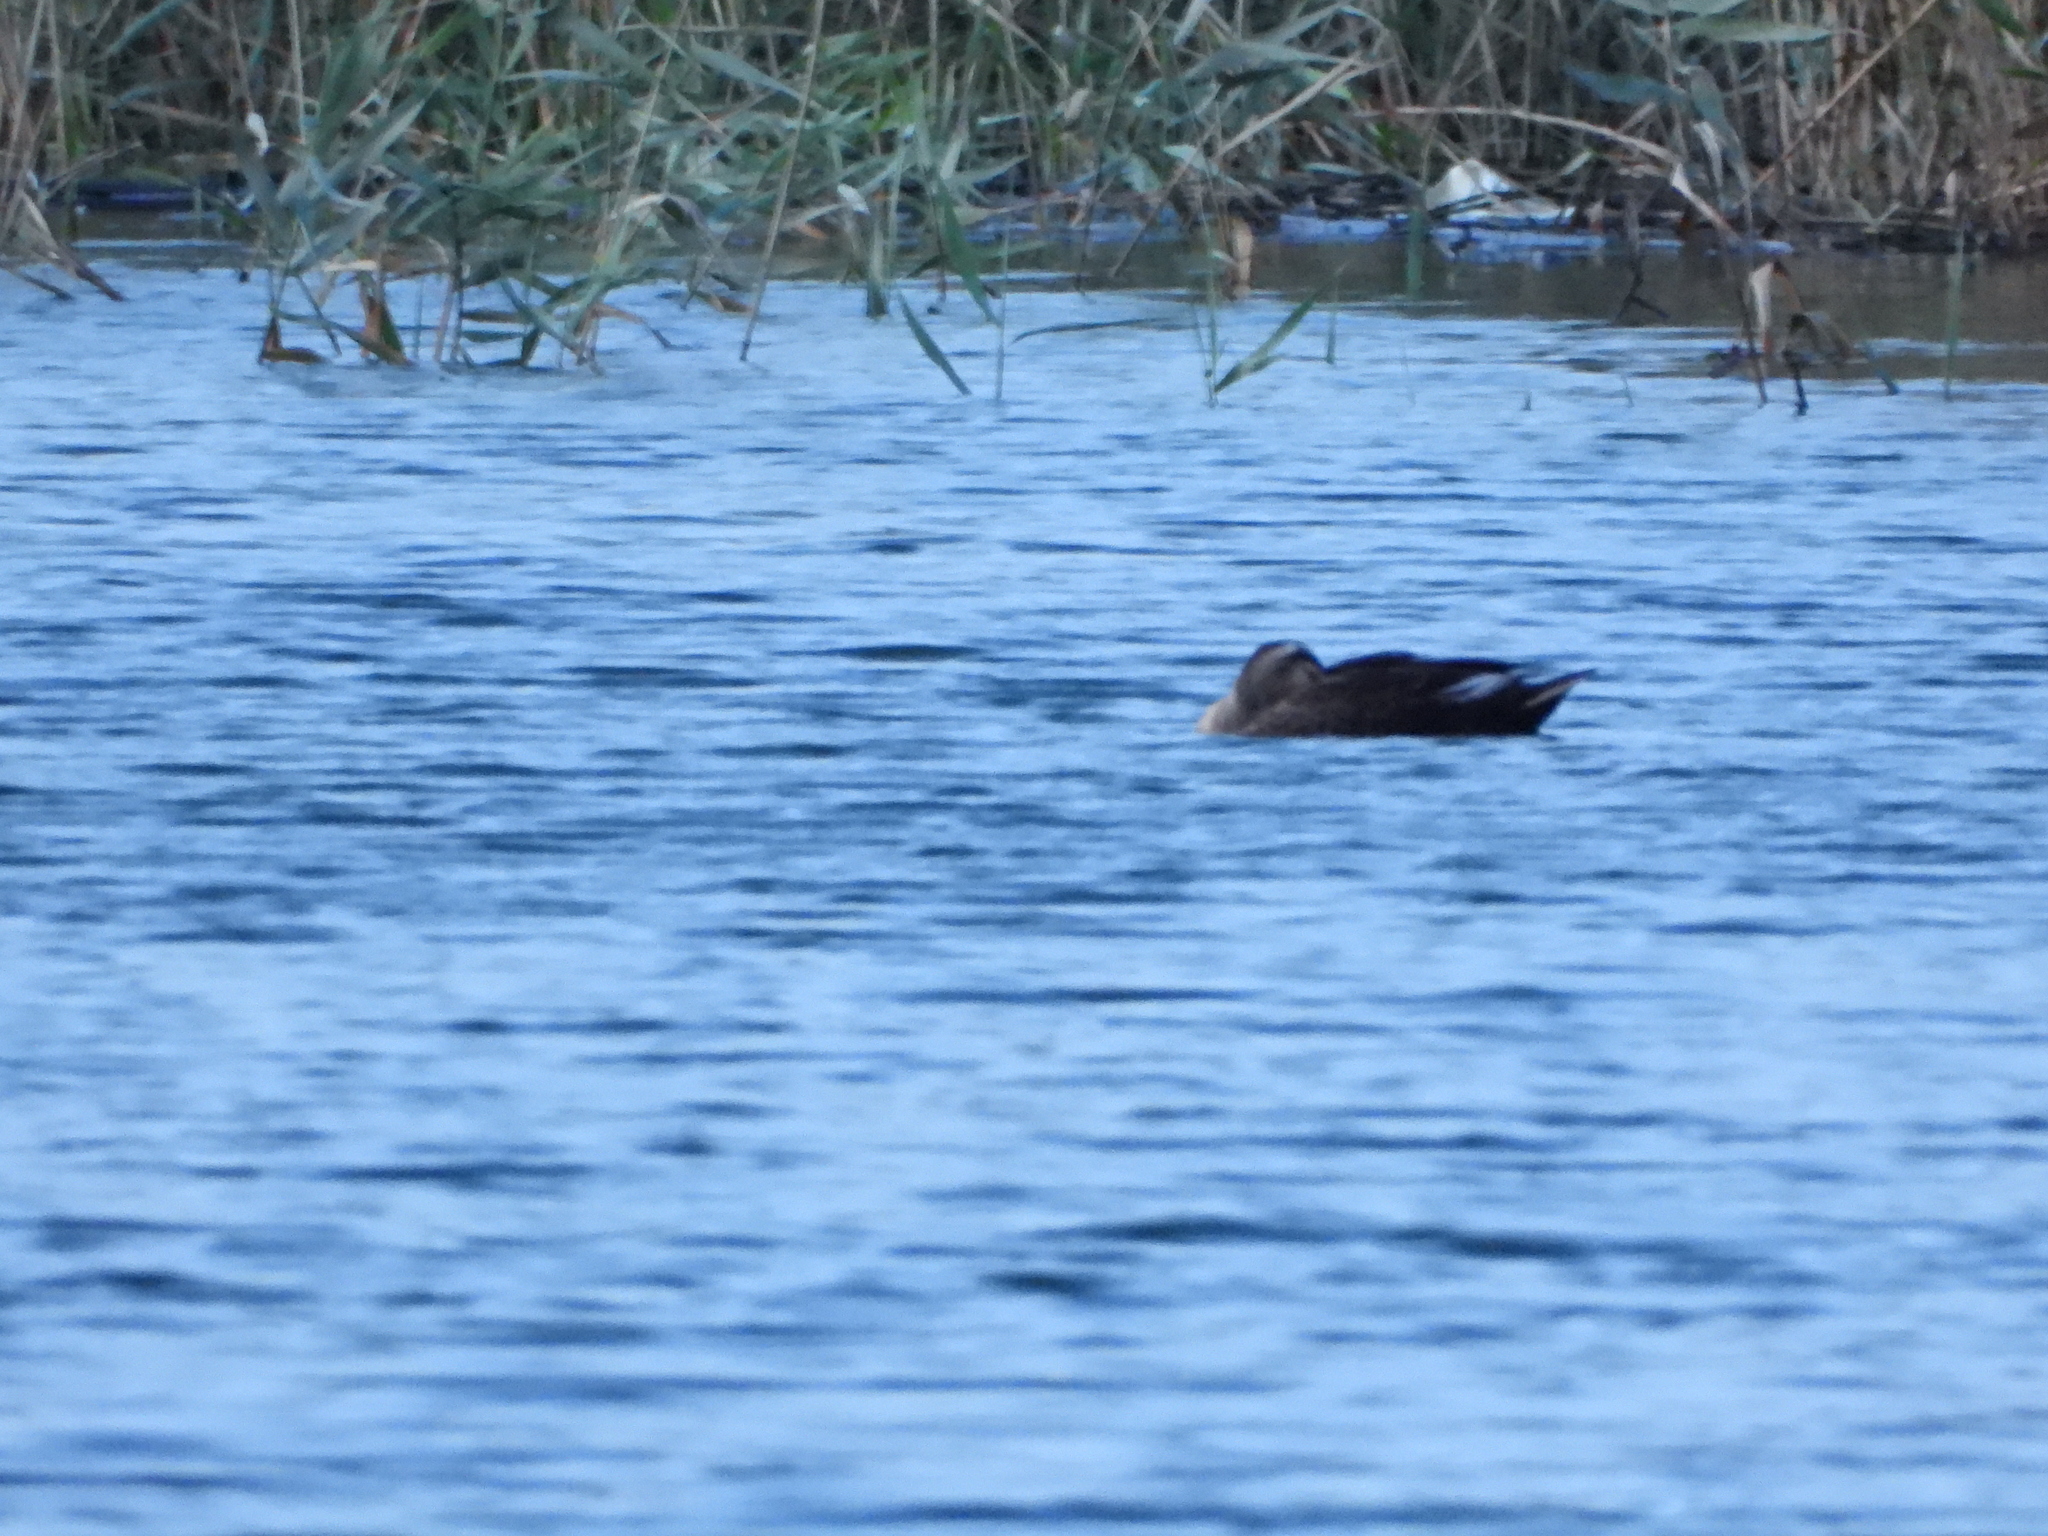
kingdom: Animalia
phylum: Chordata
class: Aves
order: Anseriformes
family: Anatidae
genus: Anas
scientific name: Anas zonorhyncha
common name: Eastern spot-billed duck
